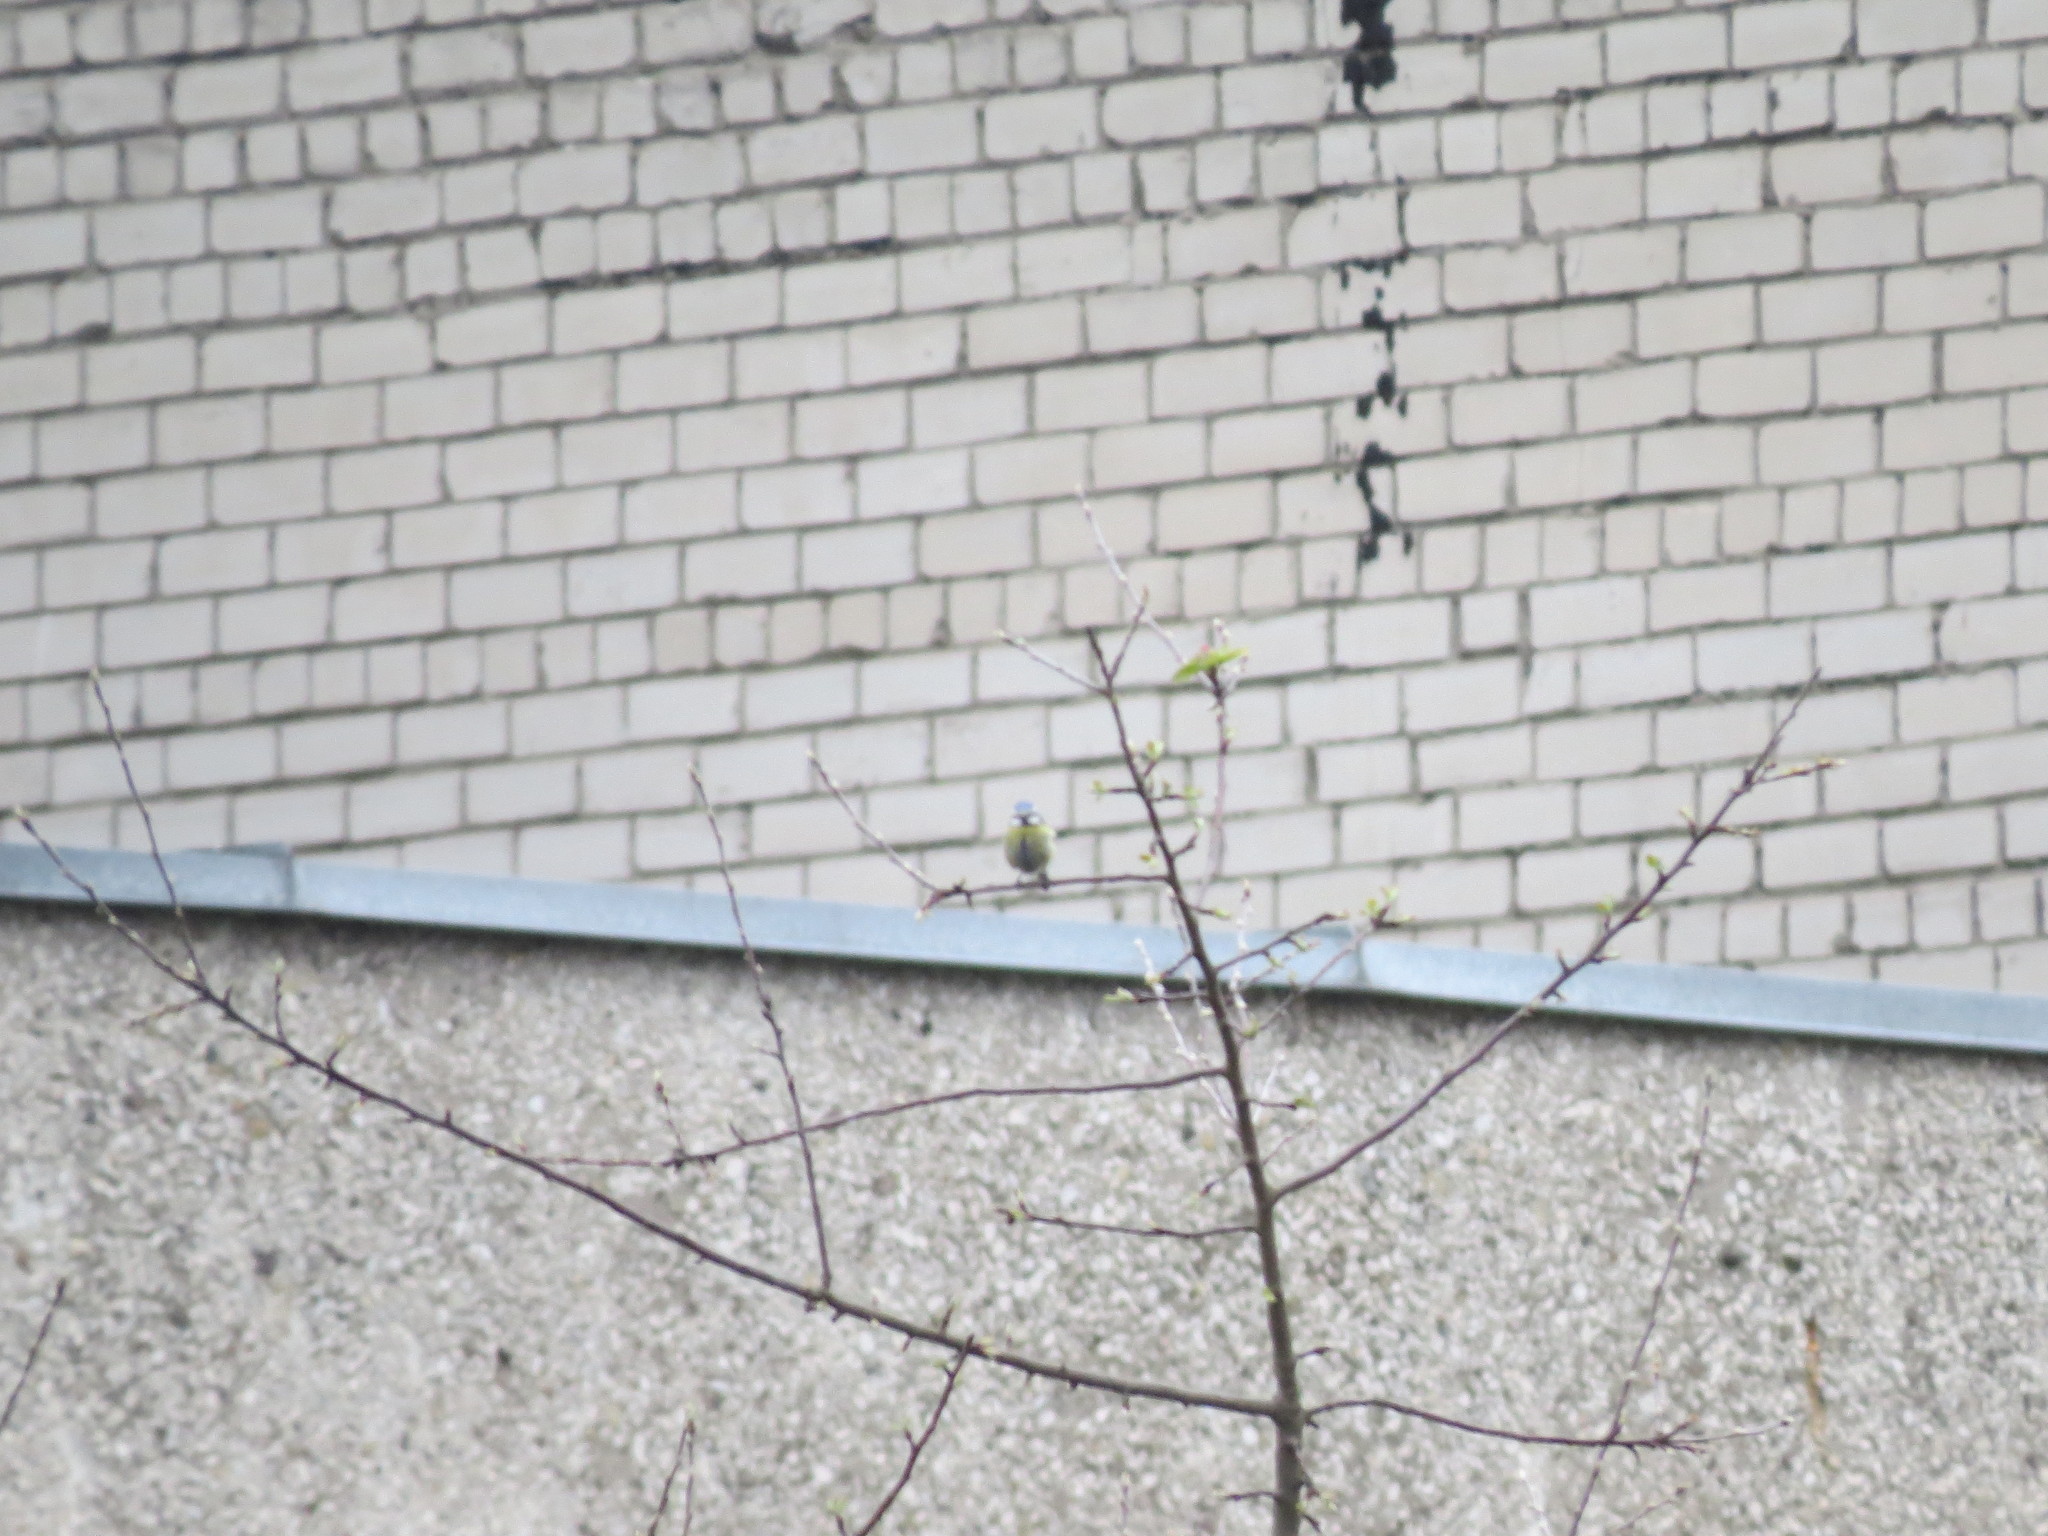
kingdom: Animalia
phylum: Chordata
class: Aves
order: Passeriformes
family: Paridae
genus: Cyanistes
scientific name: Cyanistes caeruleus
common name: Eurasian blue tit
